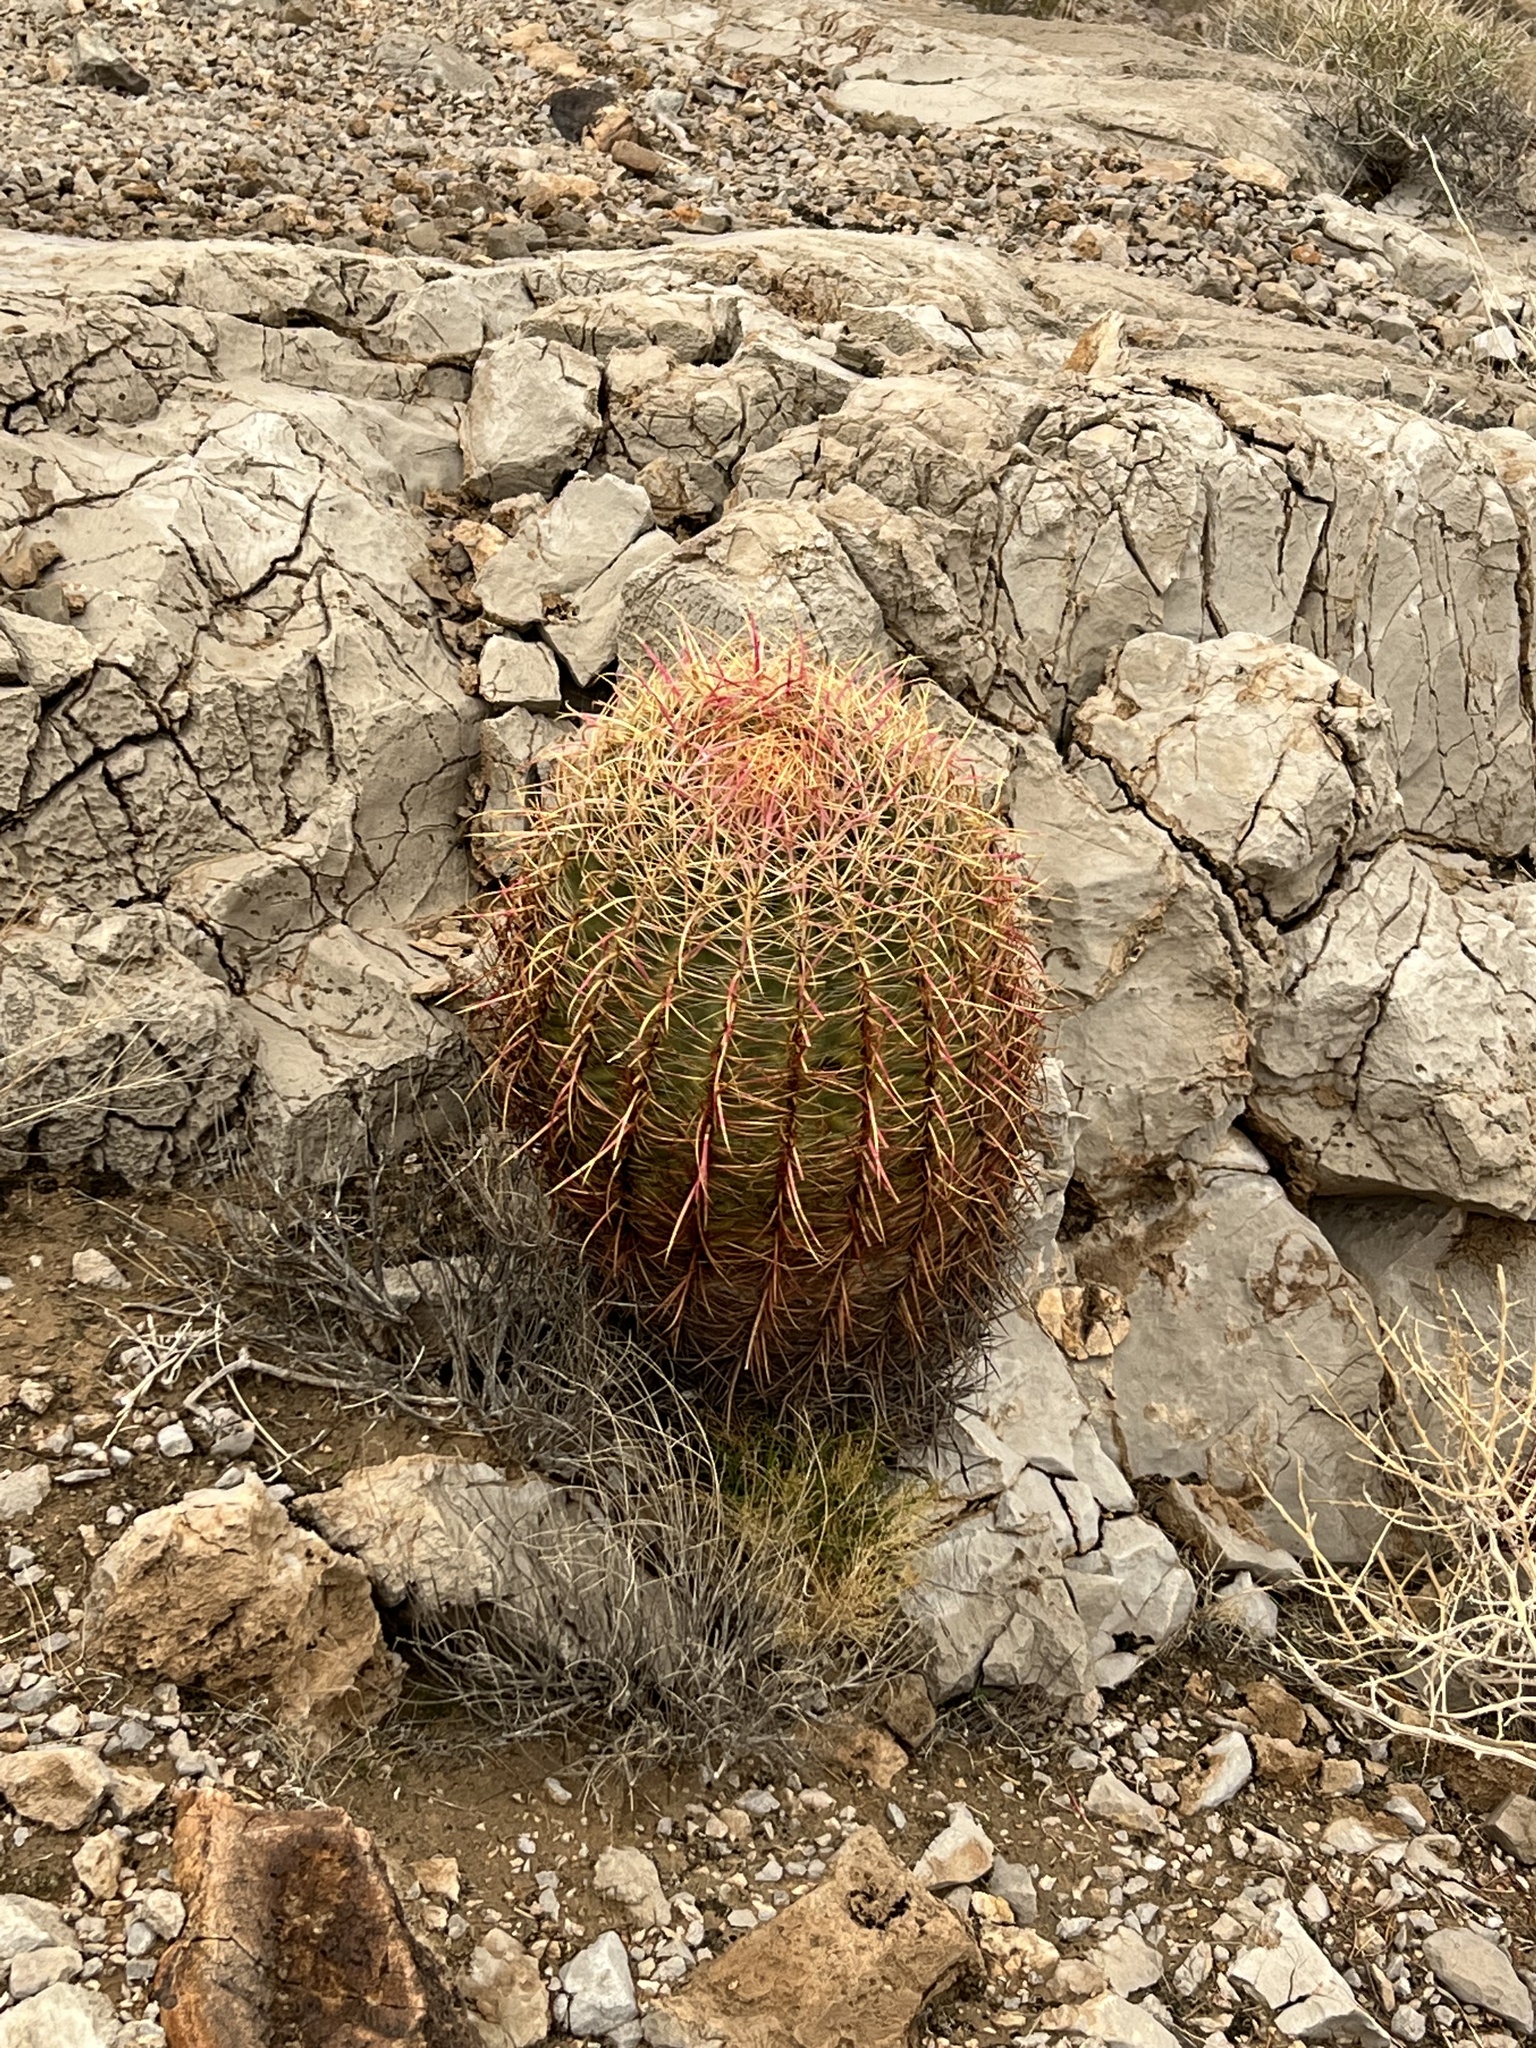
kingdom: Plantae
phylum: Tracheophyta
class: Magnoliopsida
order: Caryophyllales
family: Cactaceae
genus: Ferocactus
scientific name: Ferocactus cylindraceus
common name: California barrel cactus
